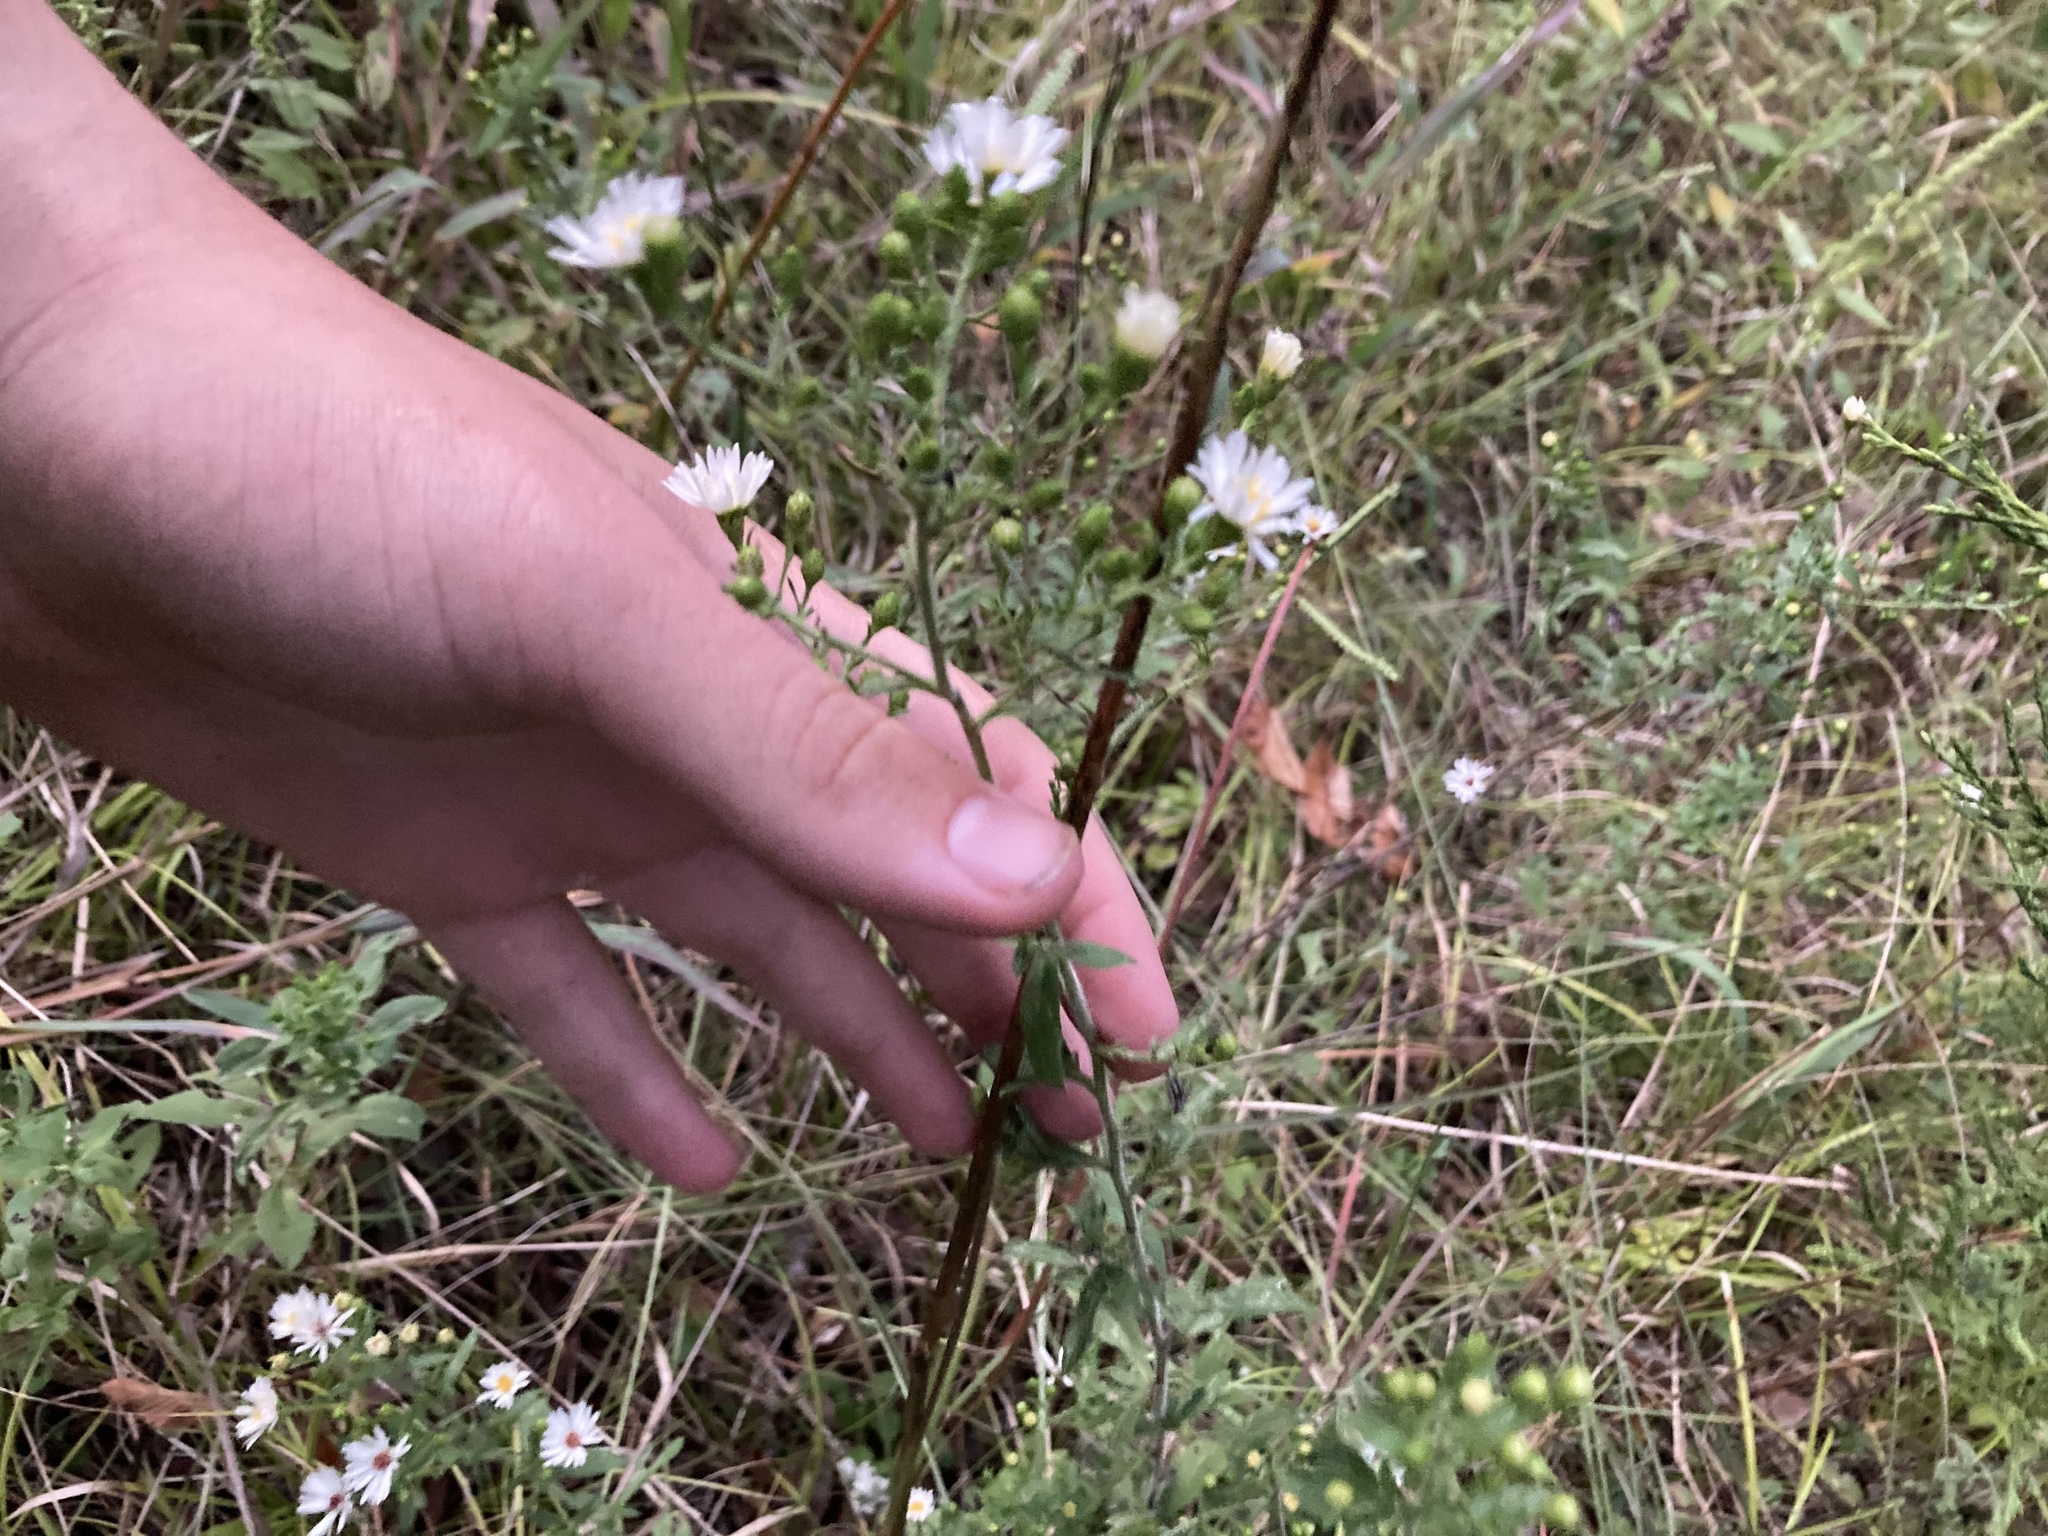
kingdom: Plantae
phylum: Tracheophyta
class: Magnoliopsida
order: Asterales
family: Asteraceae
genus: Symphyotrichum
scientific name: Symphyotrichum pilosum
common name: Awl aster
